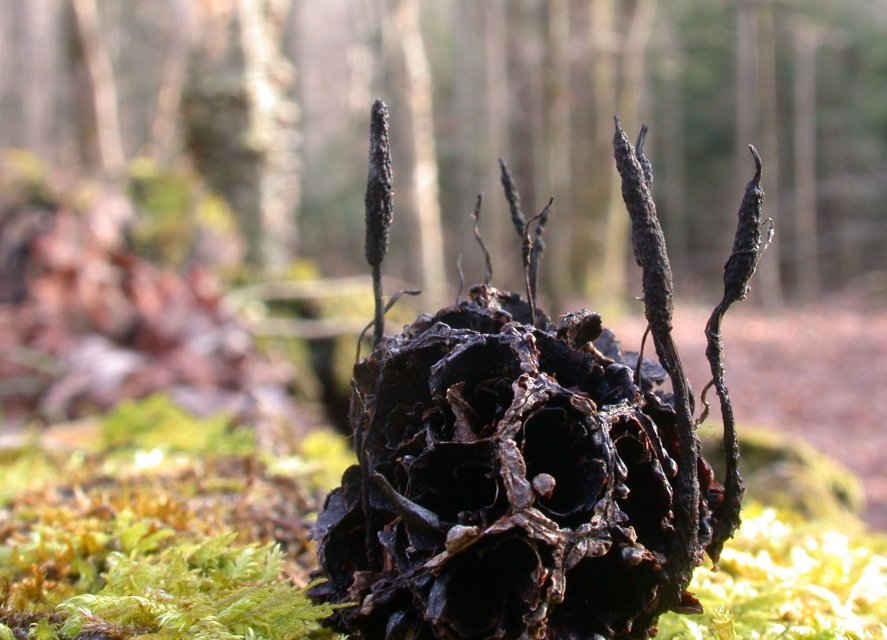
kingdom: Fungi
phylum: Ascomycota
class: Sordariomycetes
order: Xylariales
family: Xylariaceae
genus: Xylaria
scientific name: Xylaria liquidambaris
